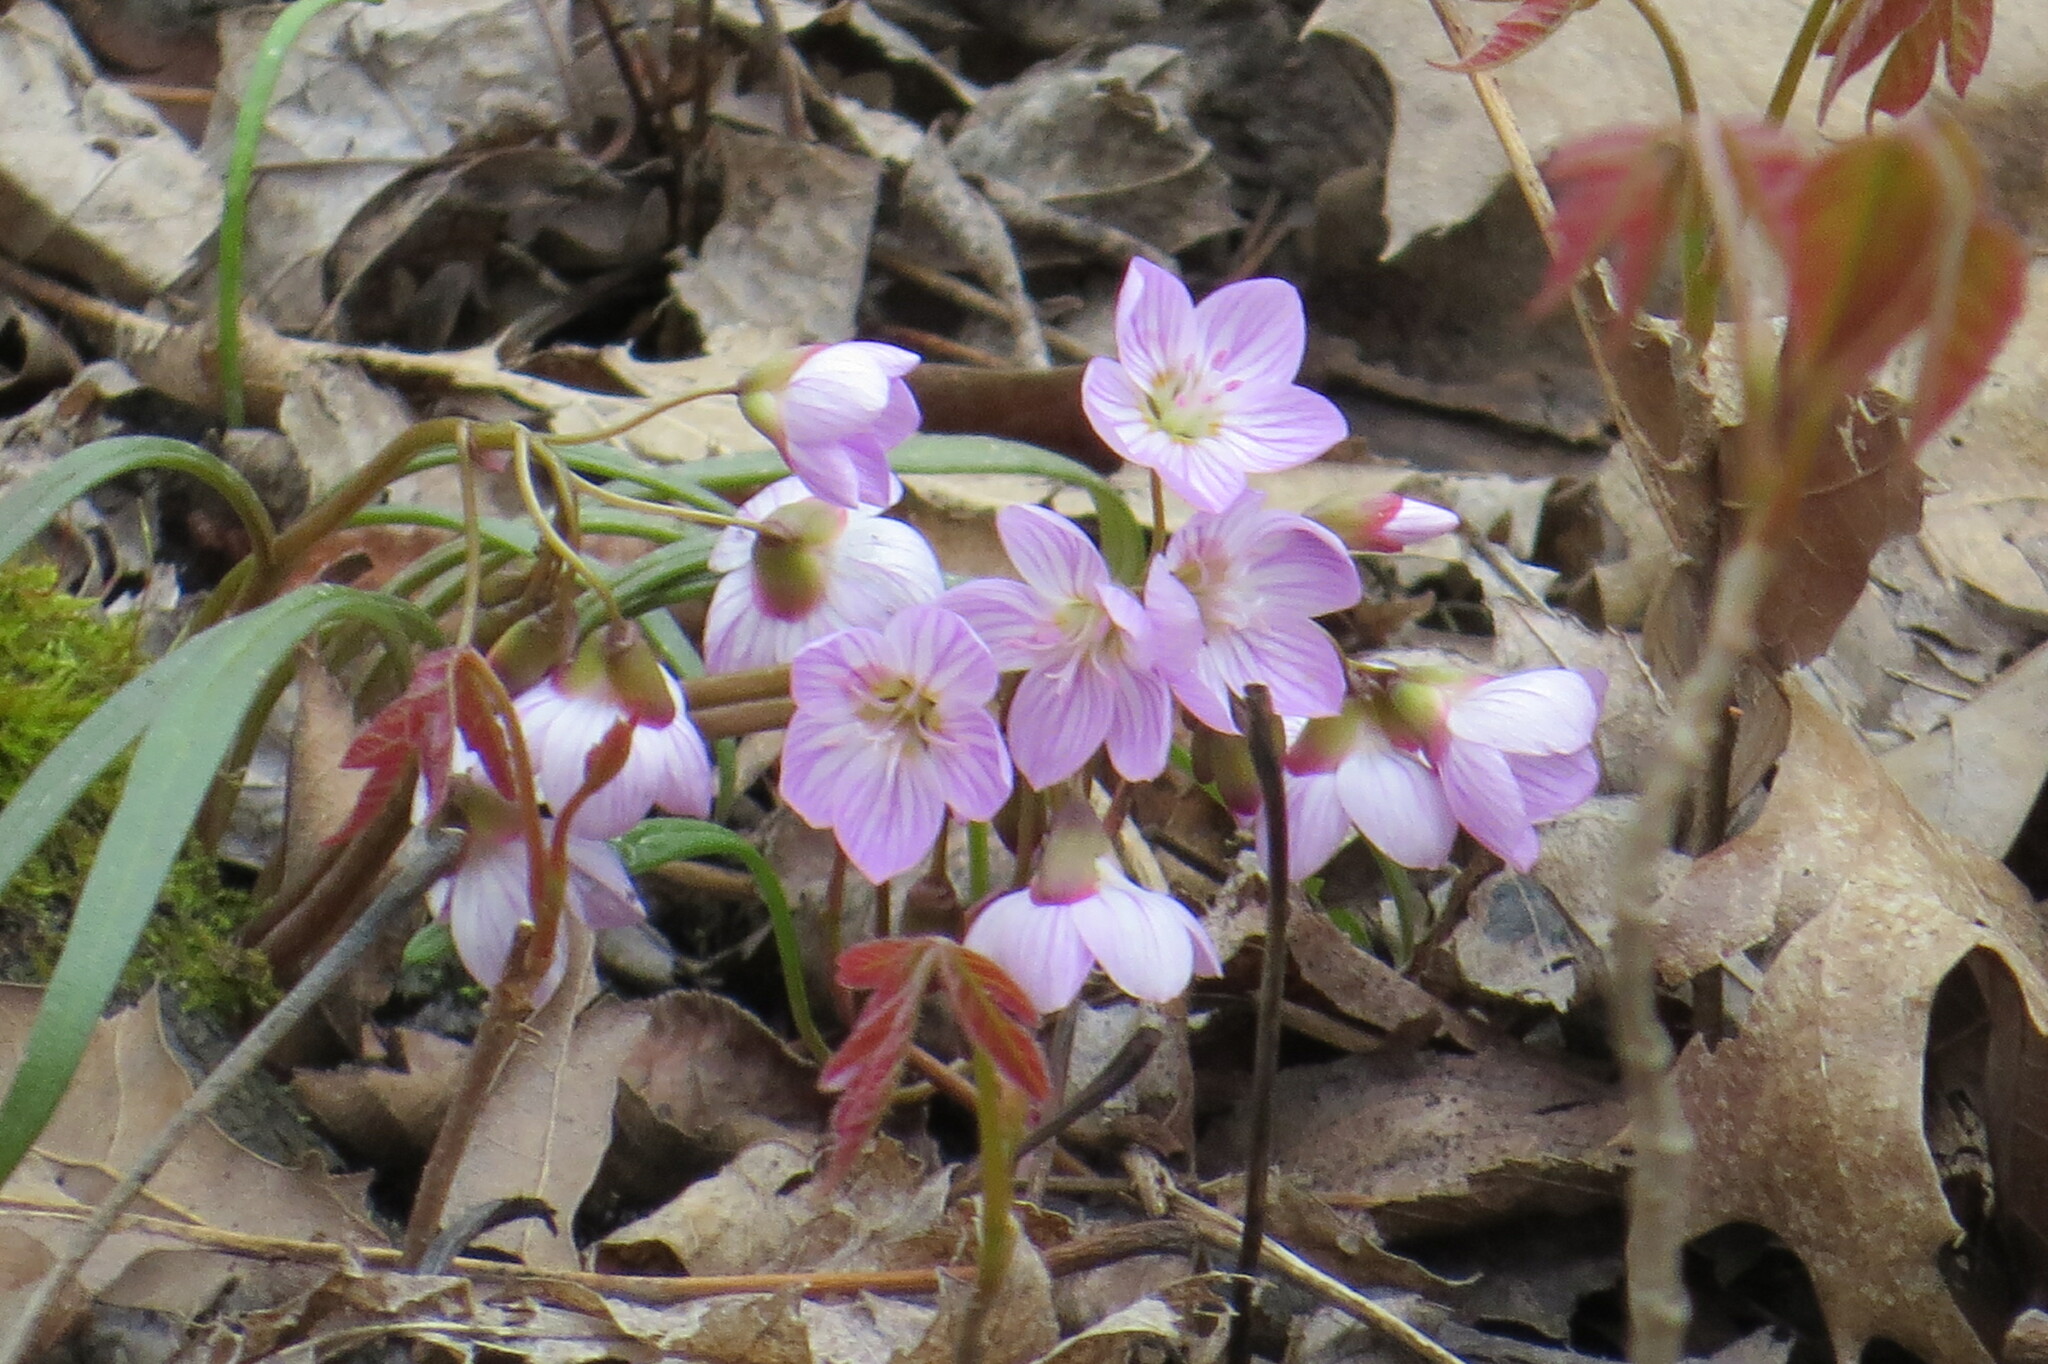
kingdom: Plantae
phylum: Tracheophyta
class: Magnoliopsida
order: Caryophyllales
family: Montiaceae
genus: Claytonia
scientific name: Claytonia virginica
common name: Virginia springbeauty
